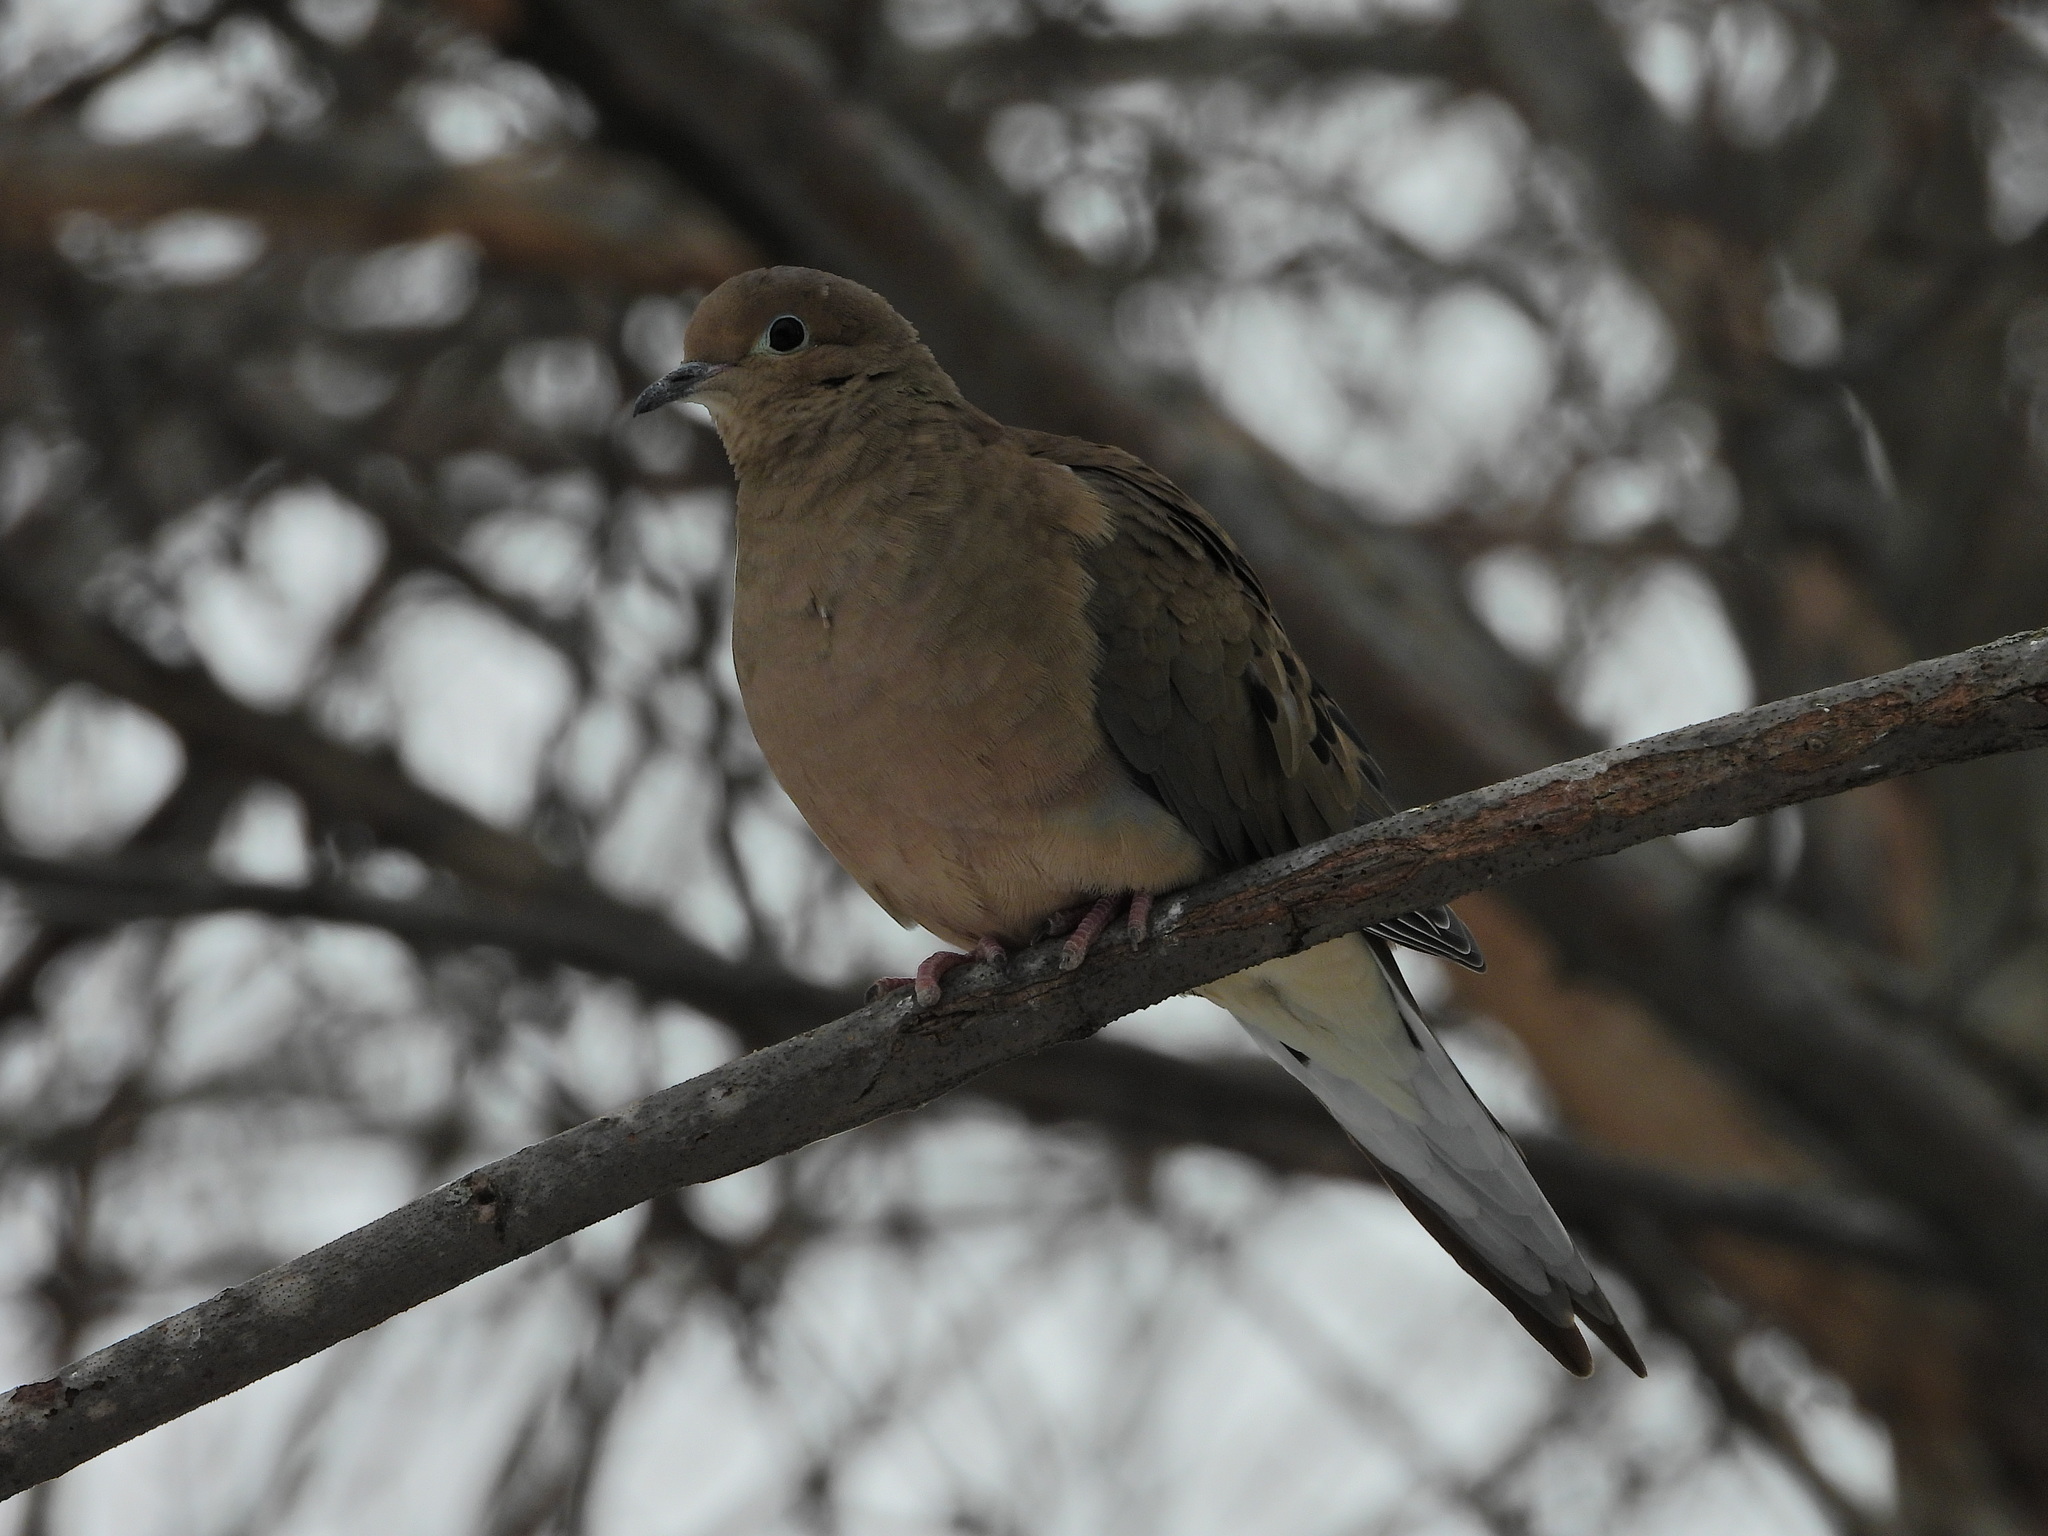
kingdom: Animalia
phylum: Chordata
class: Aves
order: Columbiformes
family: Columbidae
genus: Zenaida
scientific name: Zenaida macroura
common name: Mourning dove
